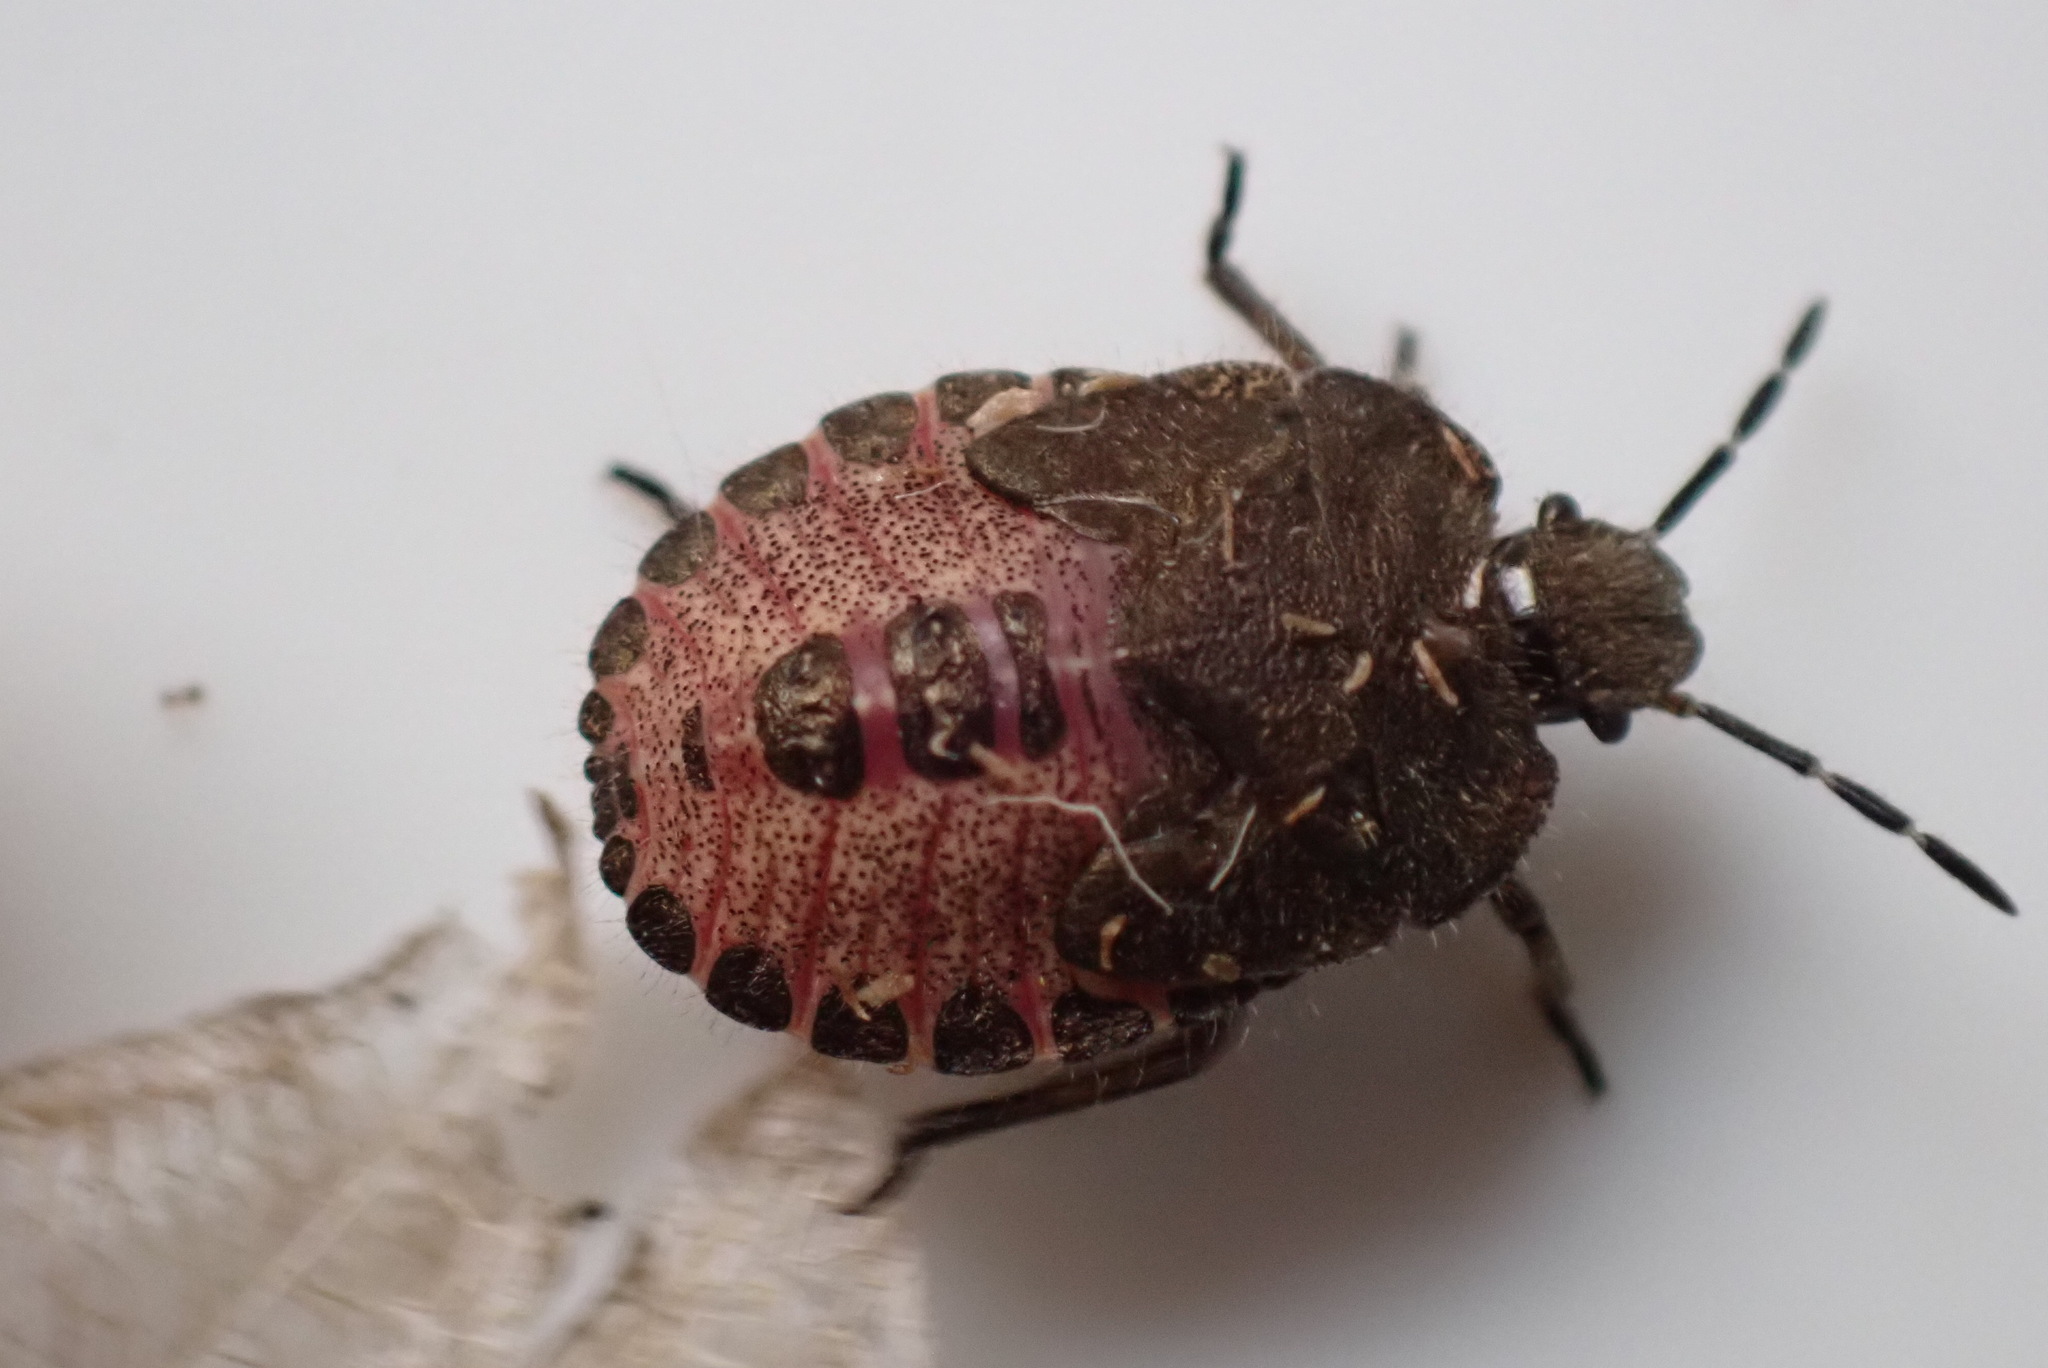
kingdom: Animalia
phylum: Arthropoda
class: Insecta
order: Hemiptera
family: Pentatomidae
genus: Dolycoris
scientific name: Dolycoris baccarum
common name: Sloe bug
